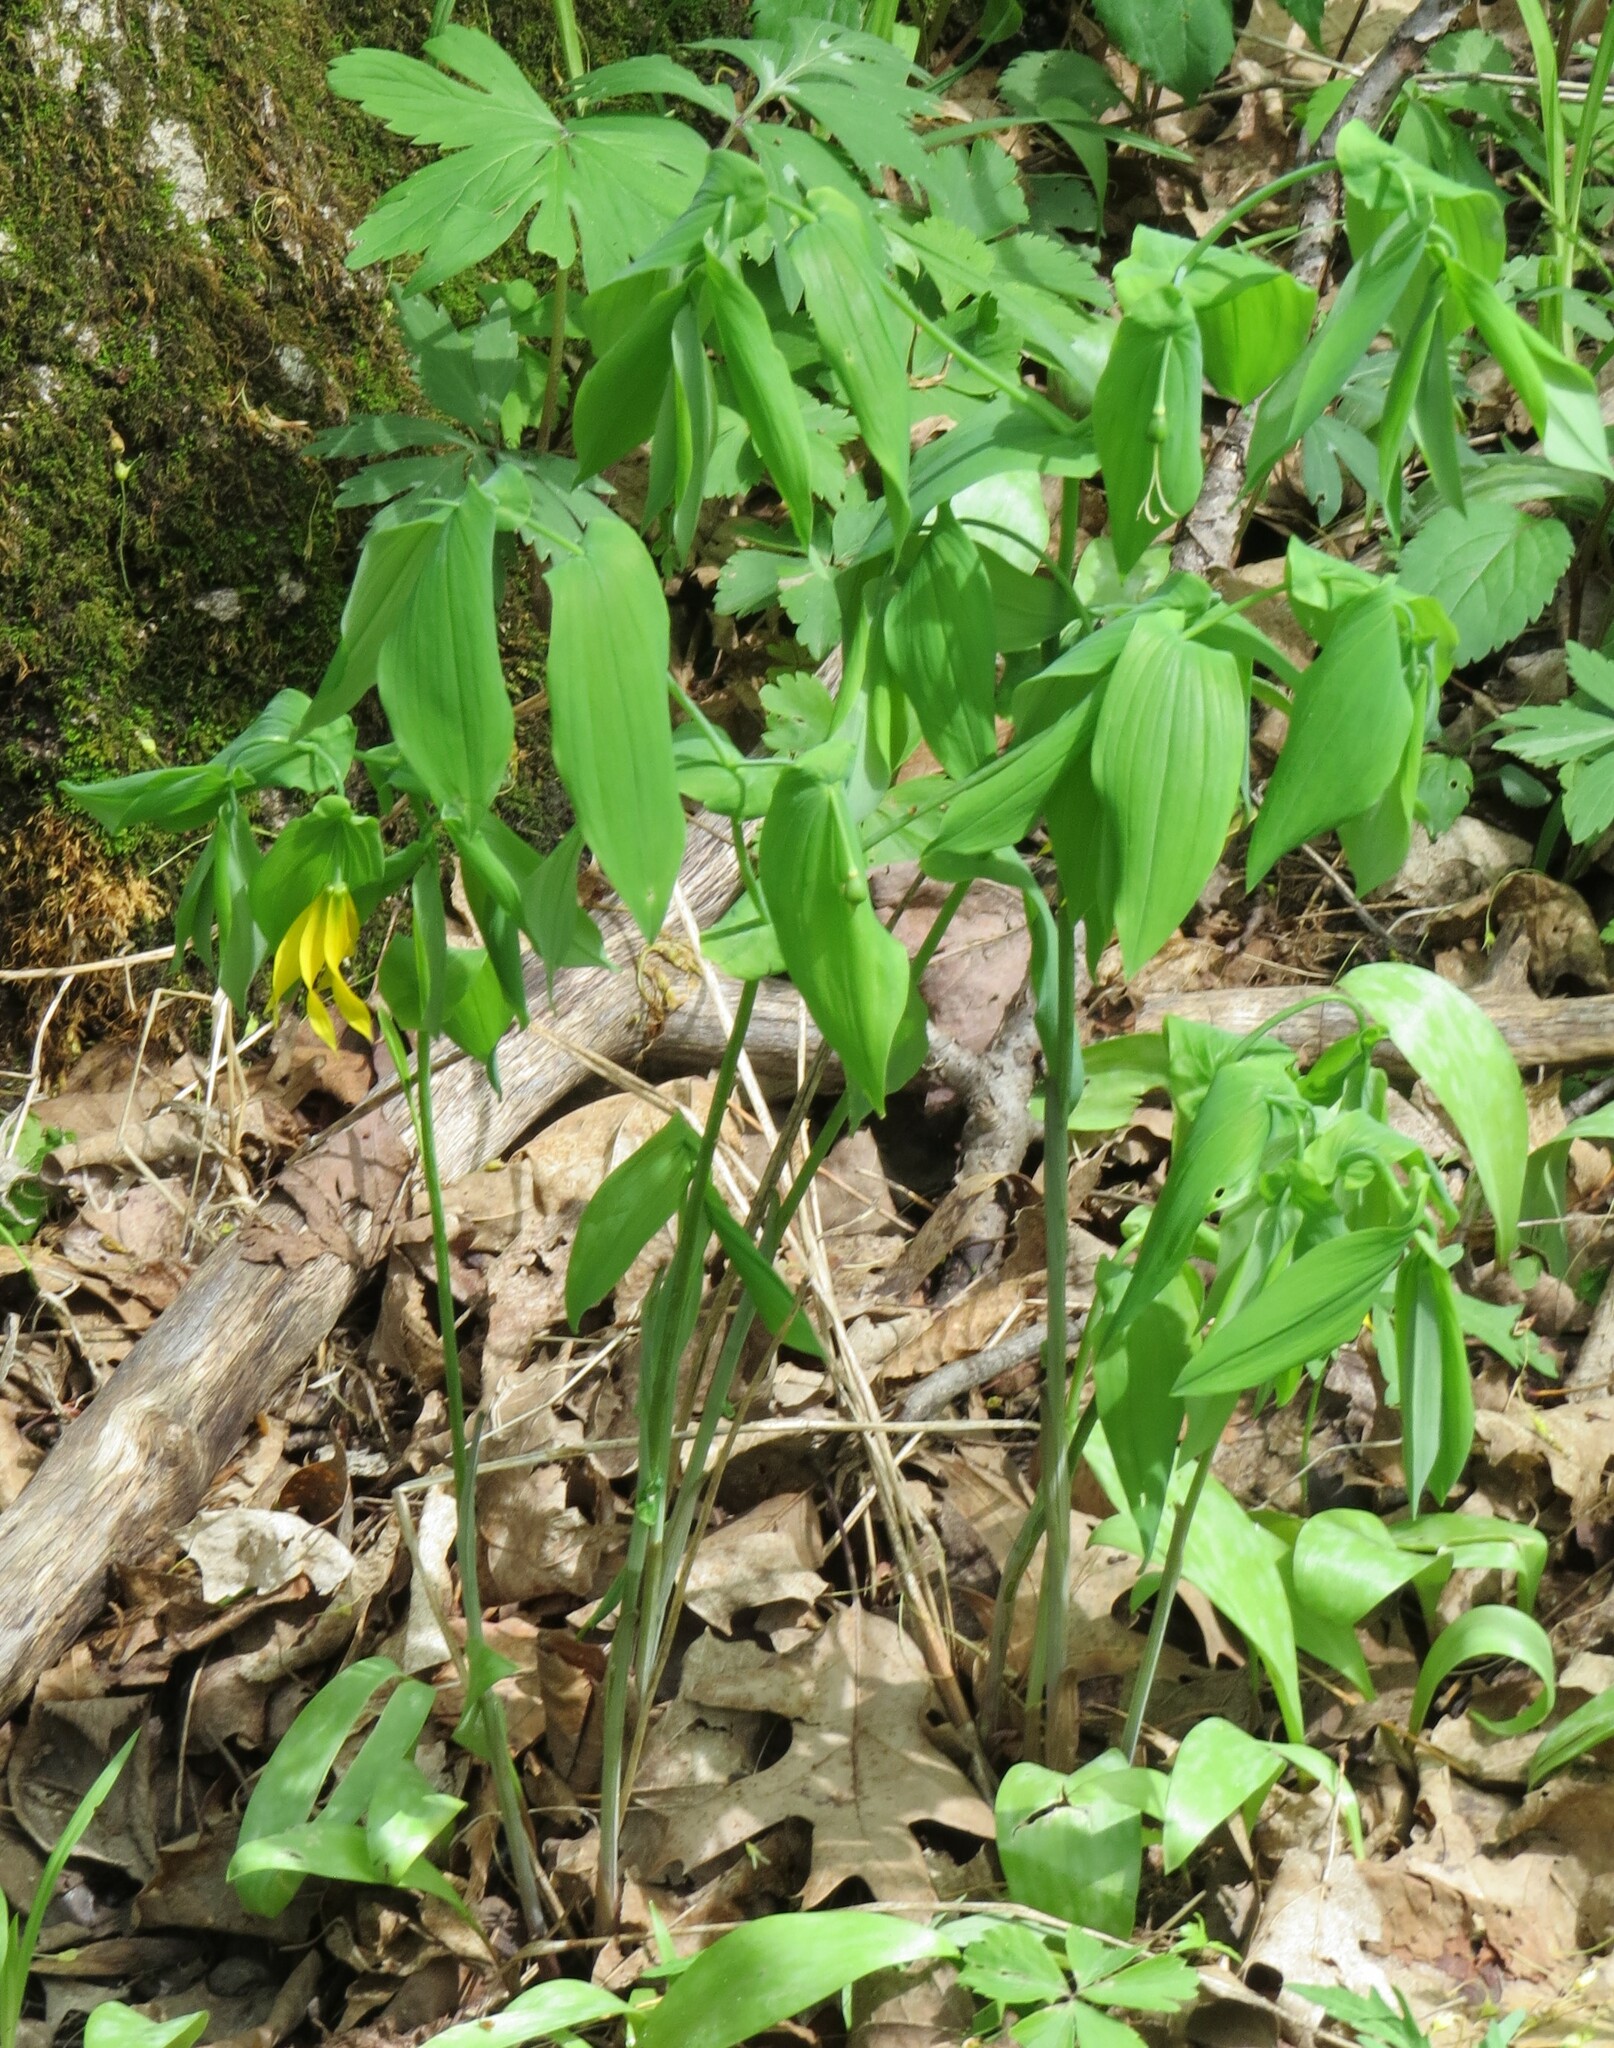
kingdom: Plantae
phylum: Tracheophyta
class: Liliopsida
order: Liliales
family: Colchicaceae
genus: Uvularia
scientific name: Uvularia grandiflora
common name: Bellwort
